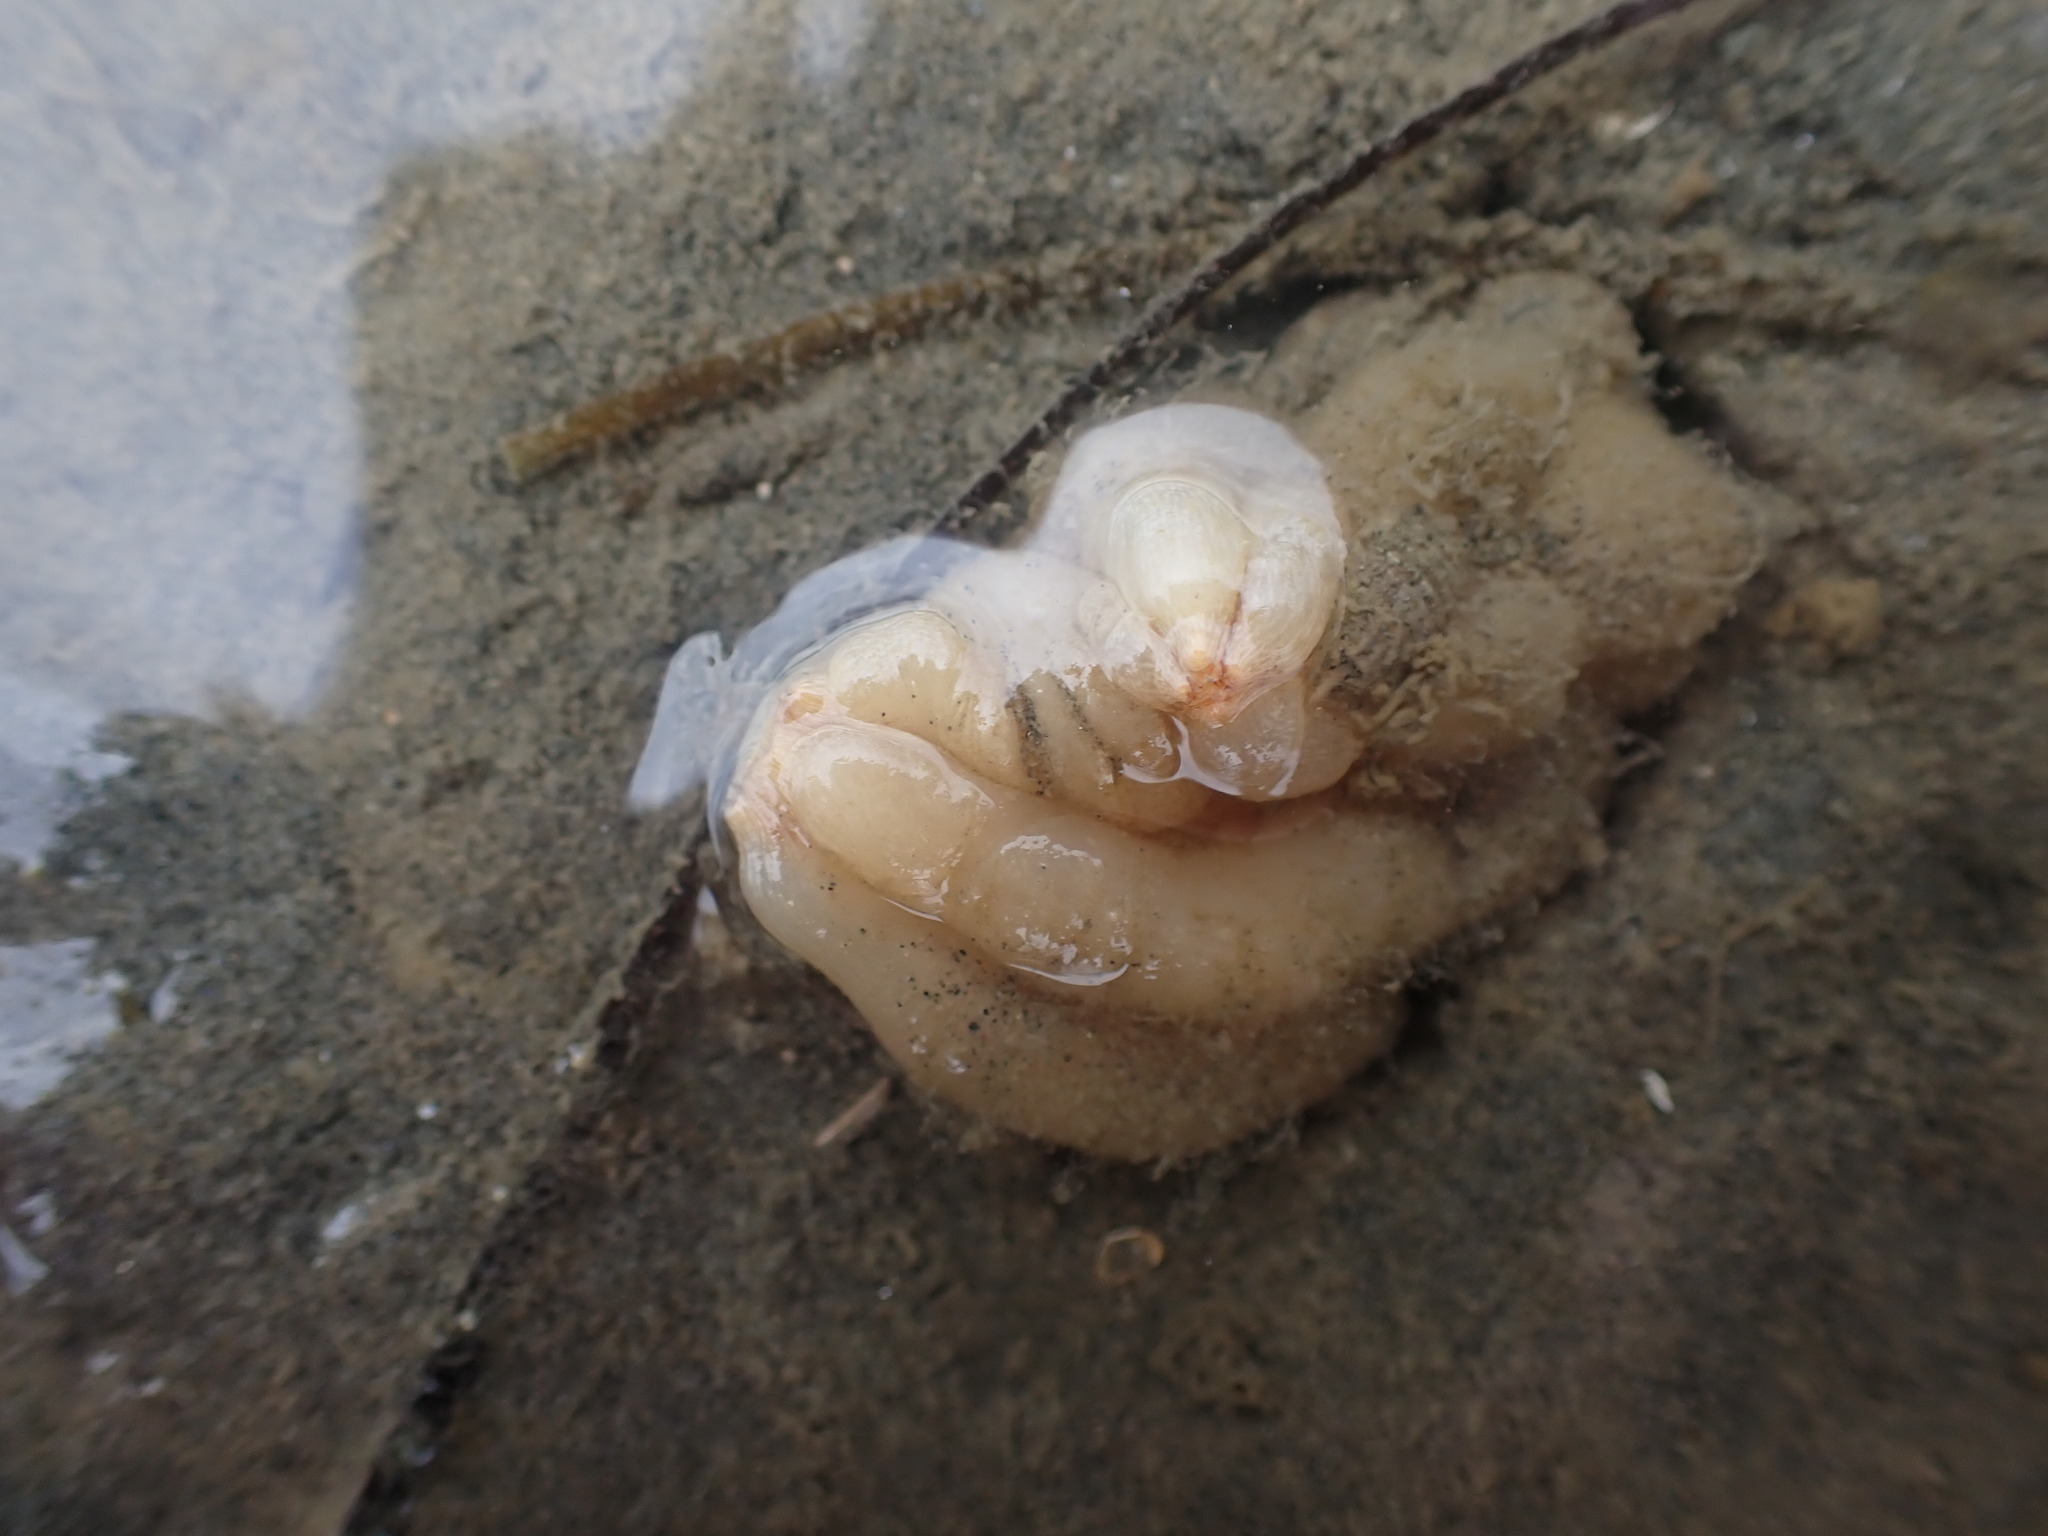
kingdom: Animalia
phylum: Chordata
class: Ascidiacea
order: Stolidobranchia
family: Styelidae
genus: Styela
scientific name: Styela plicata
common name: Pleated tunicate
